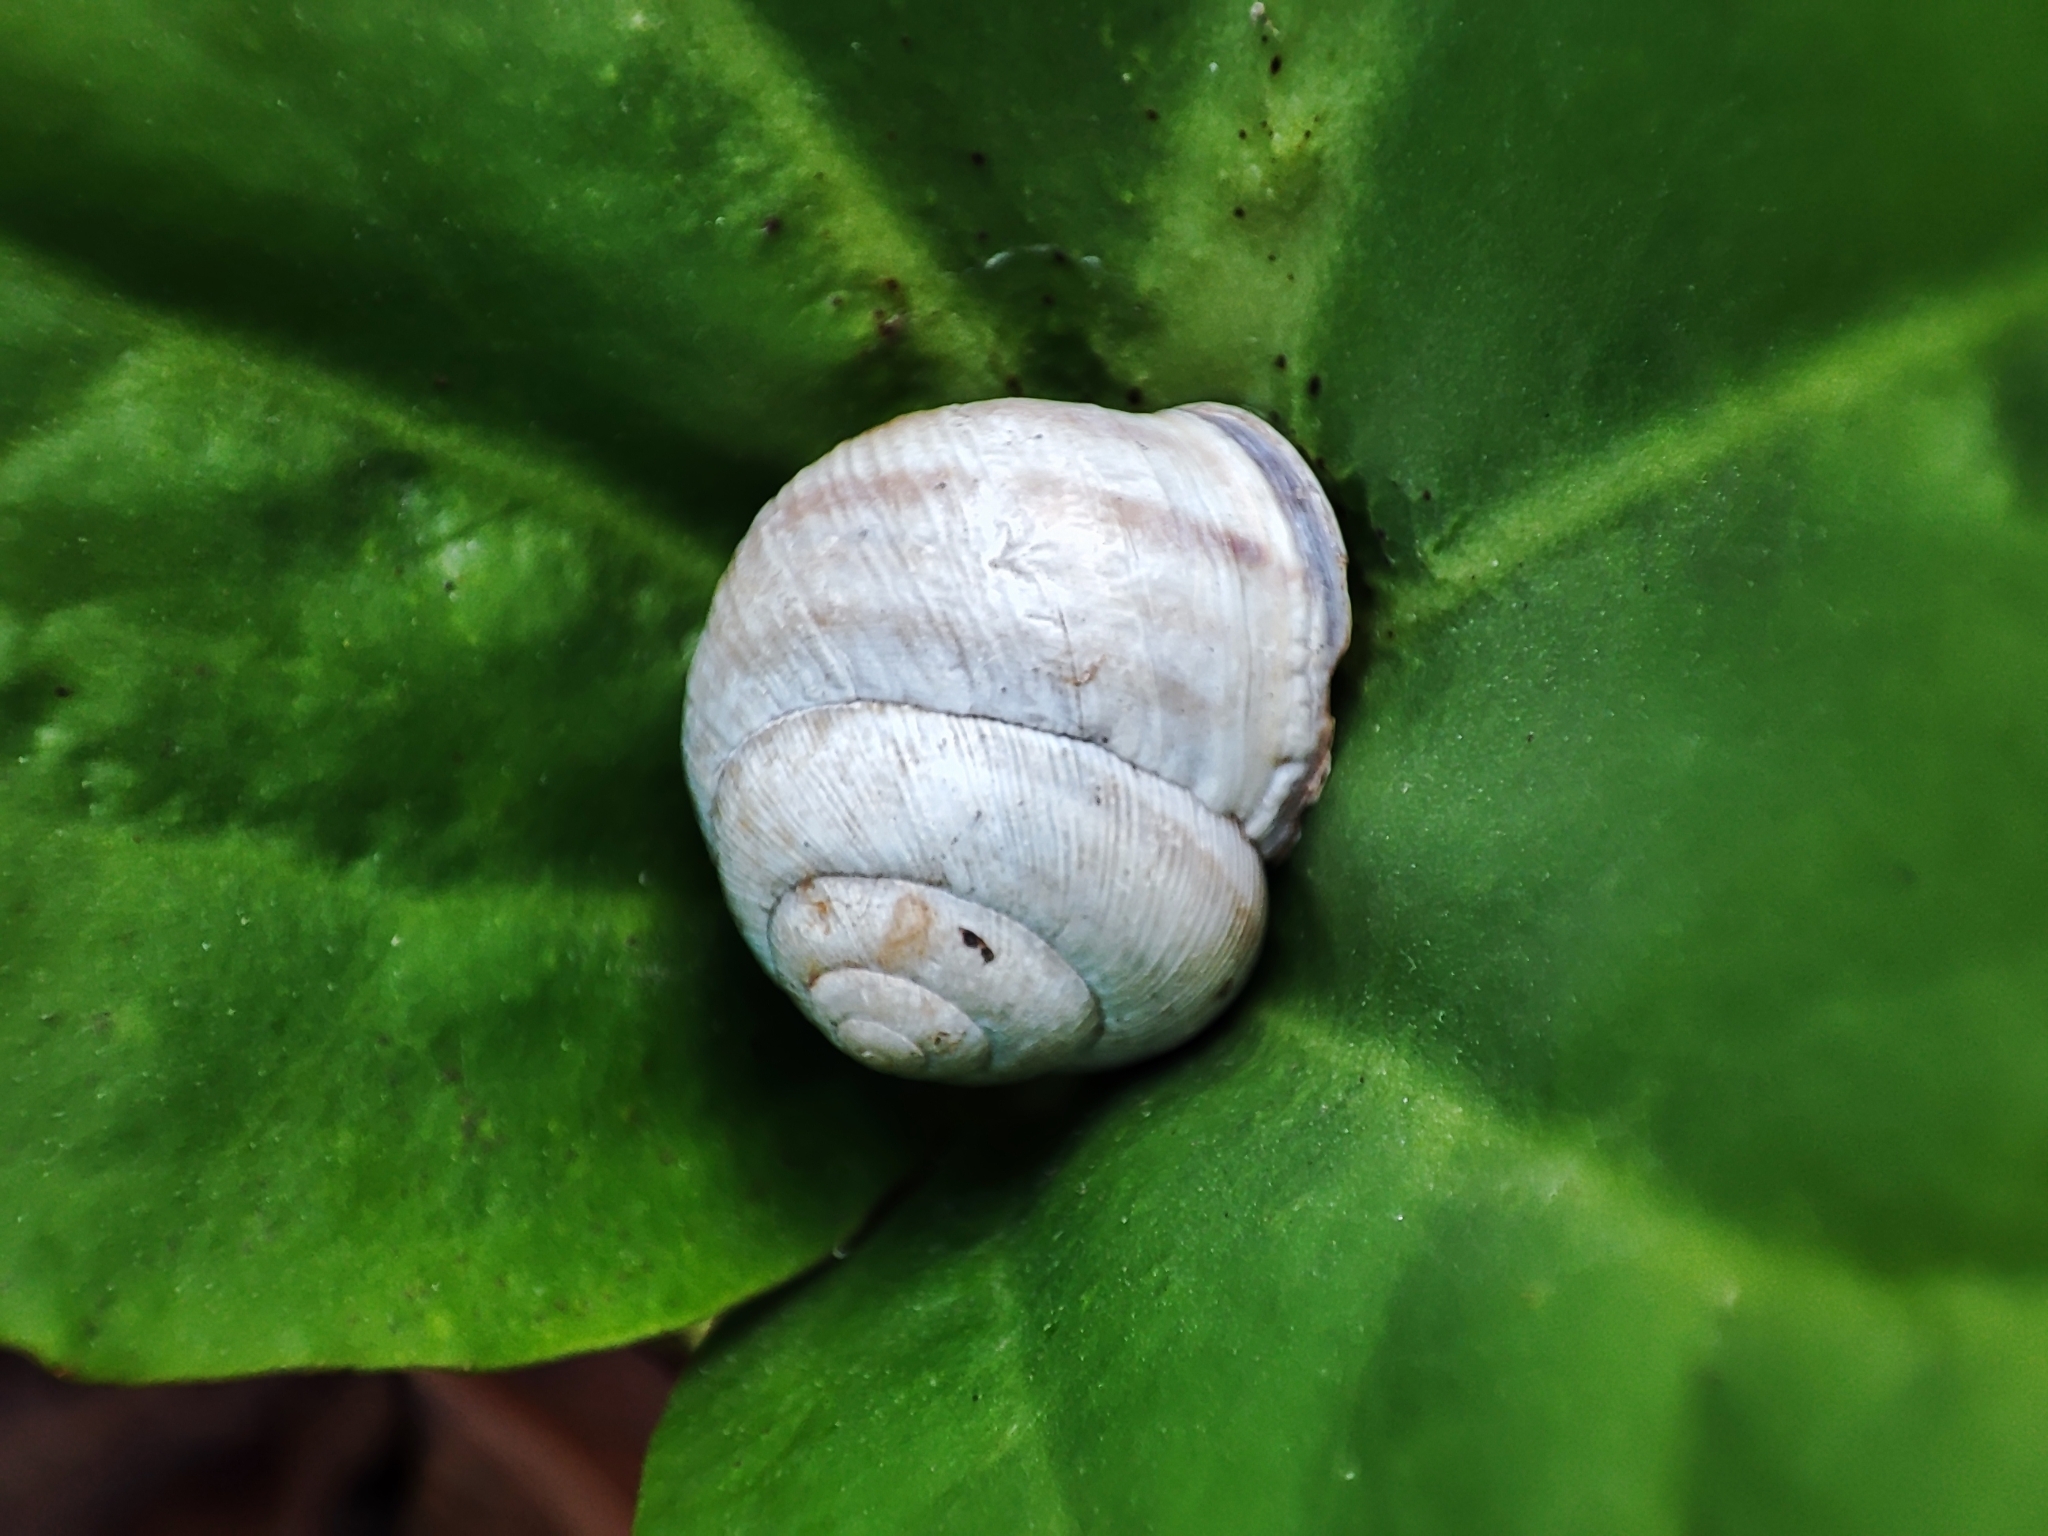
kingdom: Animalia
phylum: Mollusca
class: Gastropoda
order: Stylommatophora
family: Helicidae
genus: Caucasotachea
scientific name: Caucasotachea vindobonensis
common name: European helicid land snail
